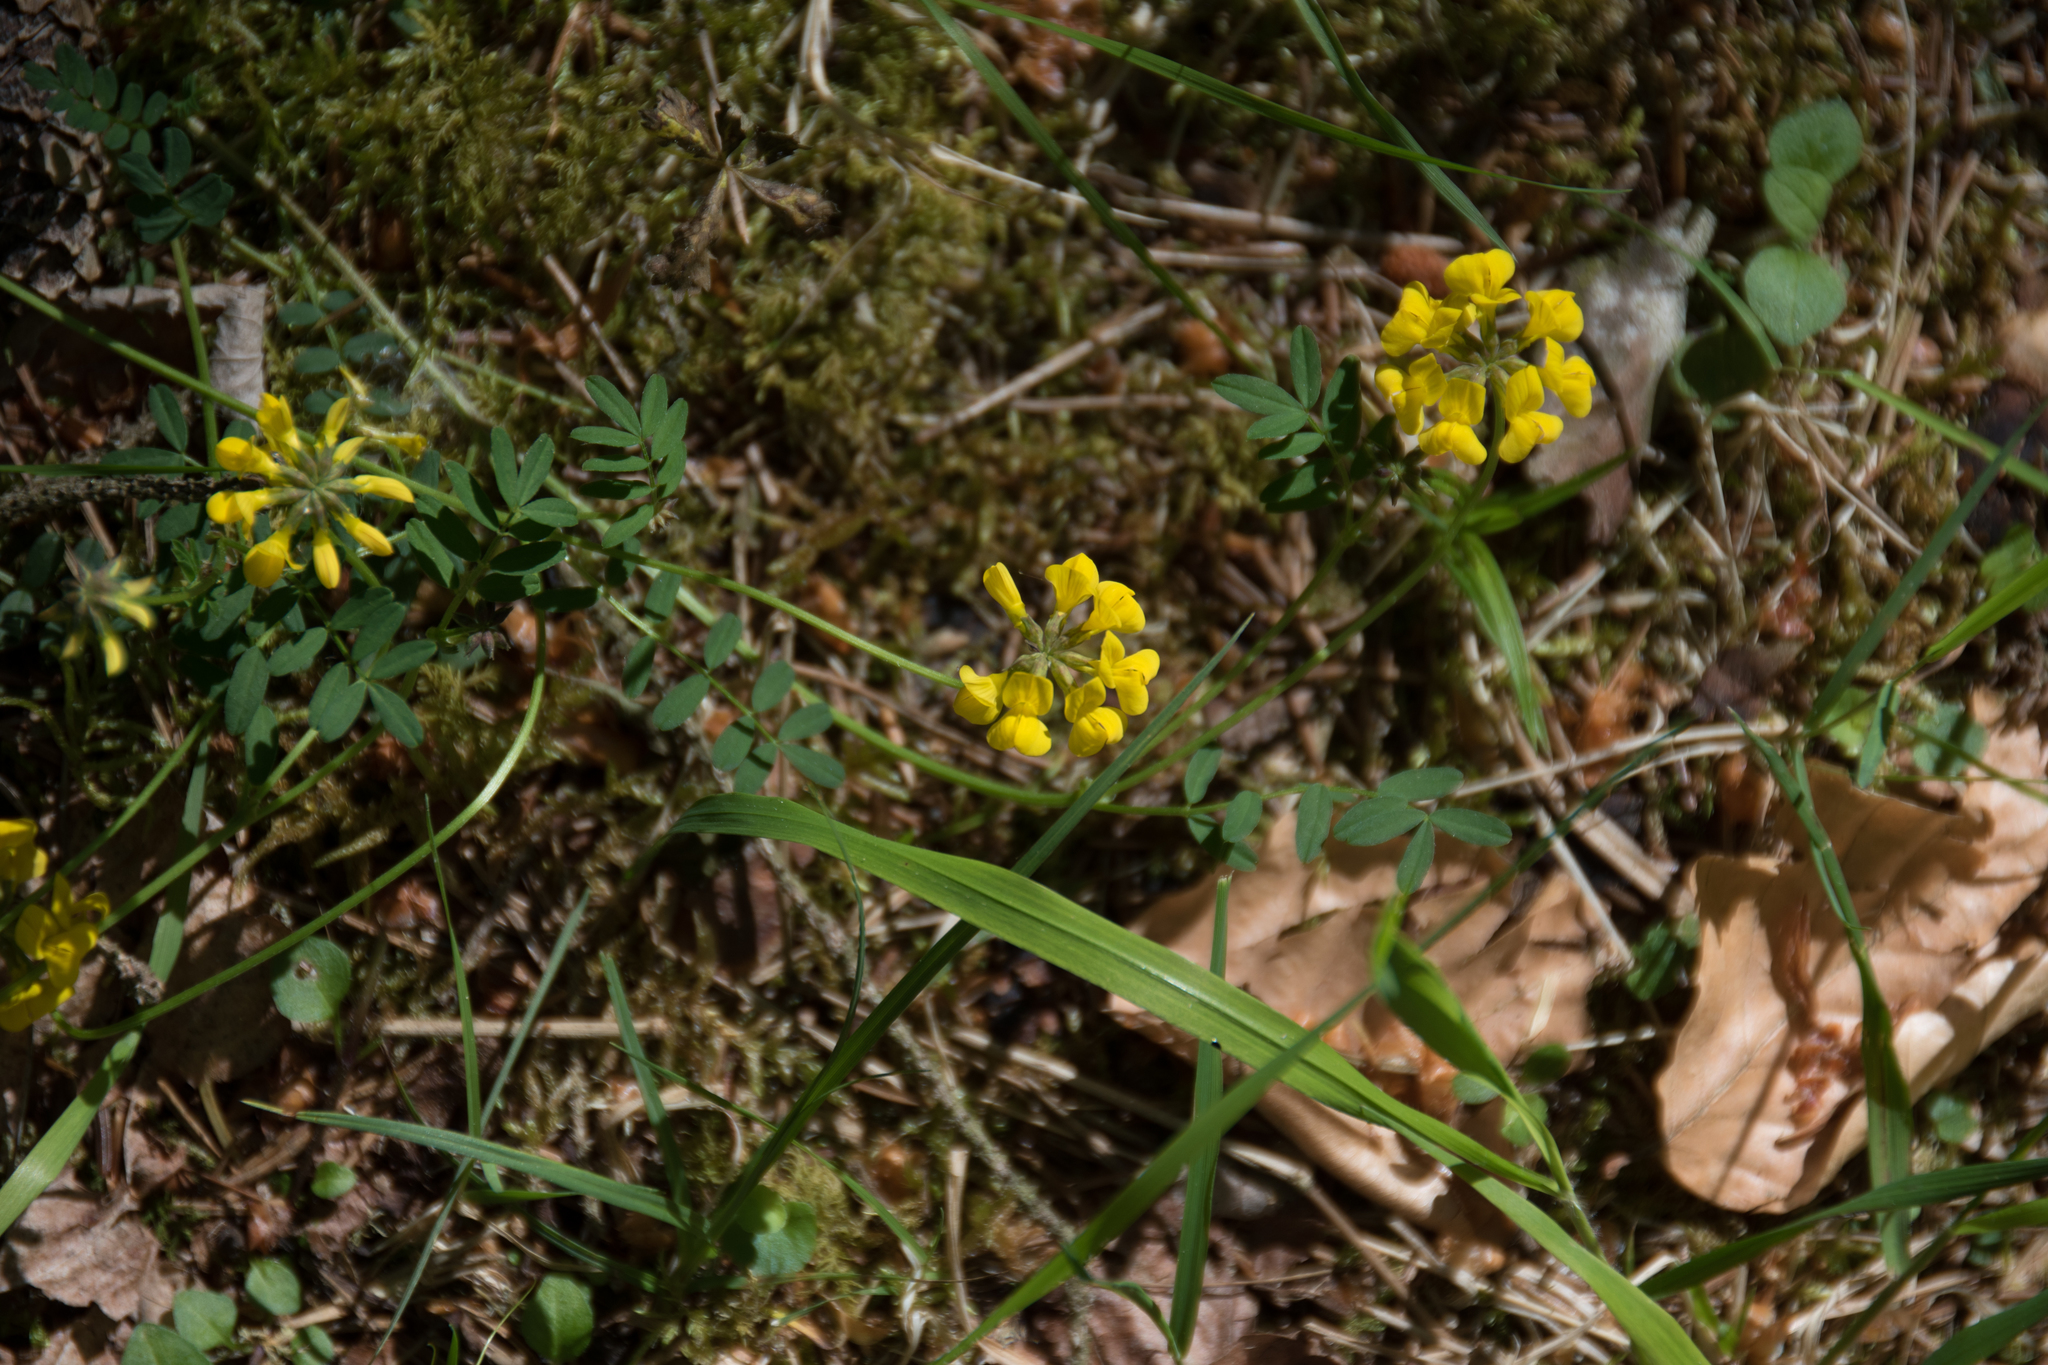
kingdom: Plantae
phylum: Tracheophyta
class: Magnoliopsida
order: Fabales
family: Fabaceae
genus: Hippocrepis
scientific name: Hippocrepis comosa
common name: Horseshoe vetch
